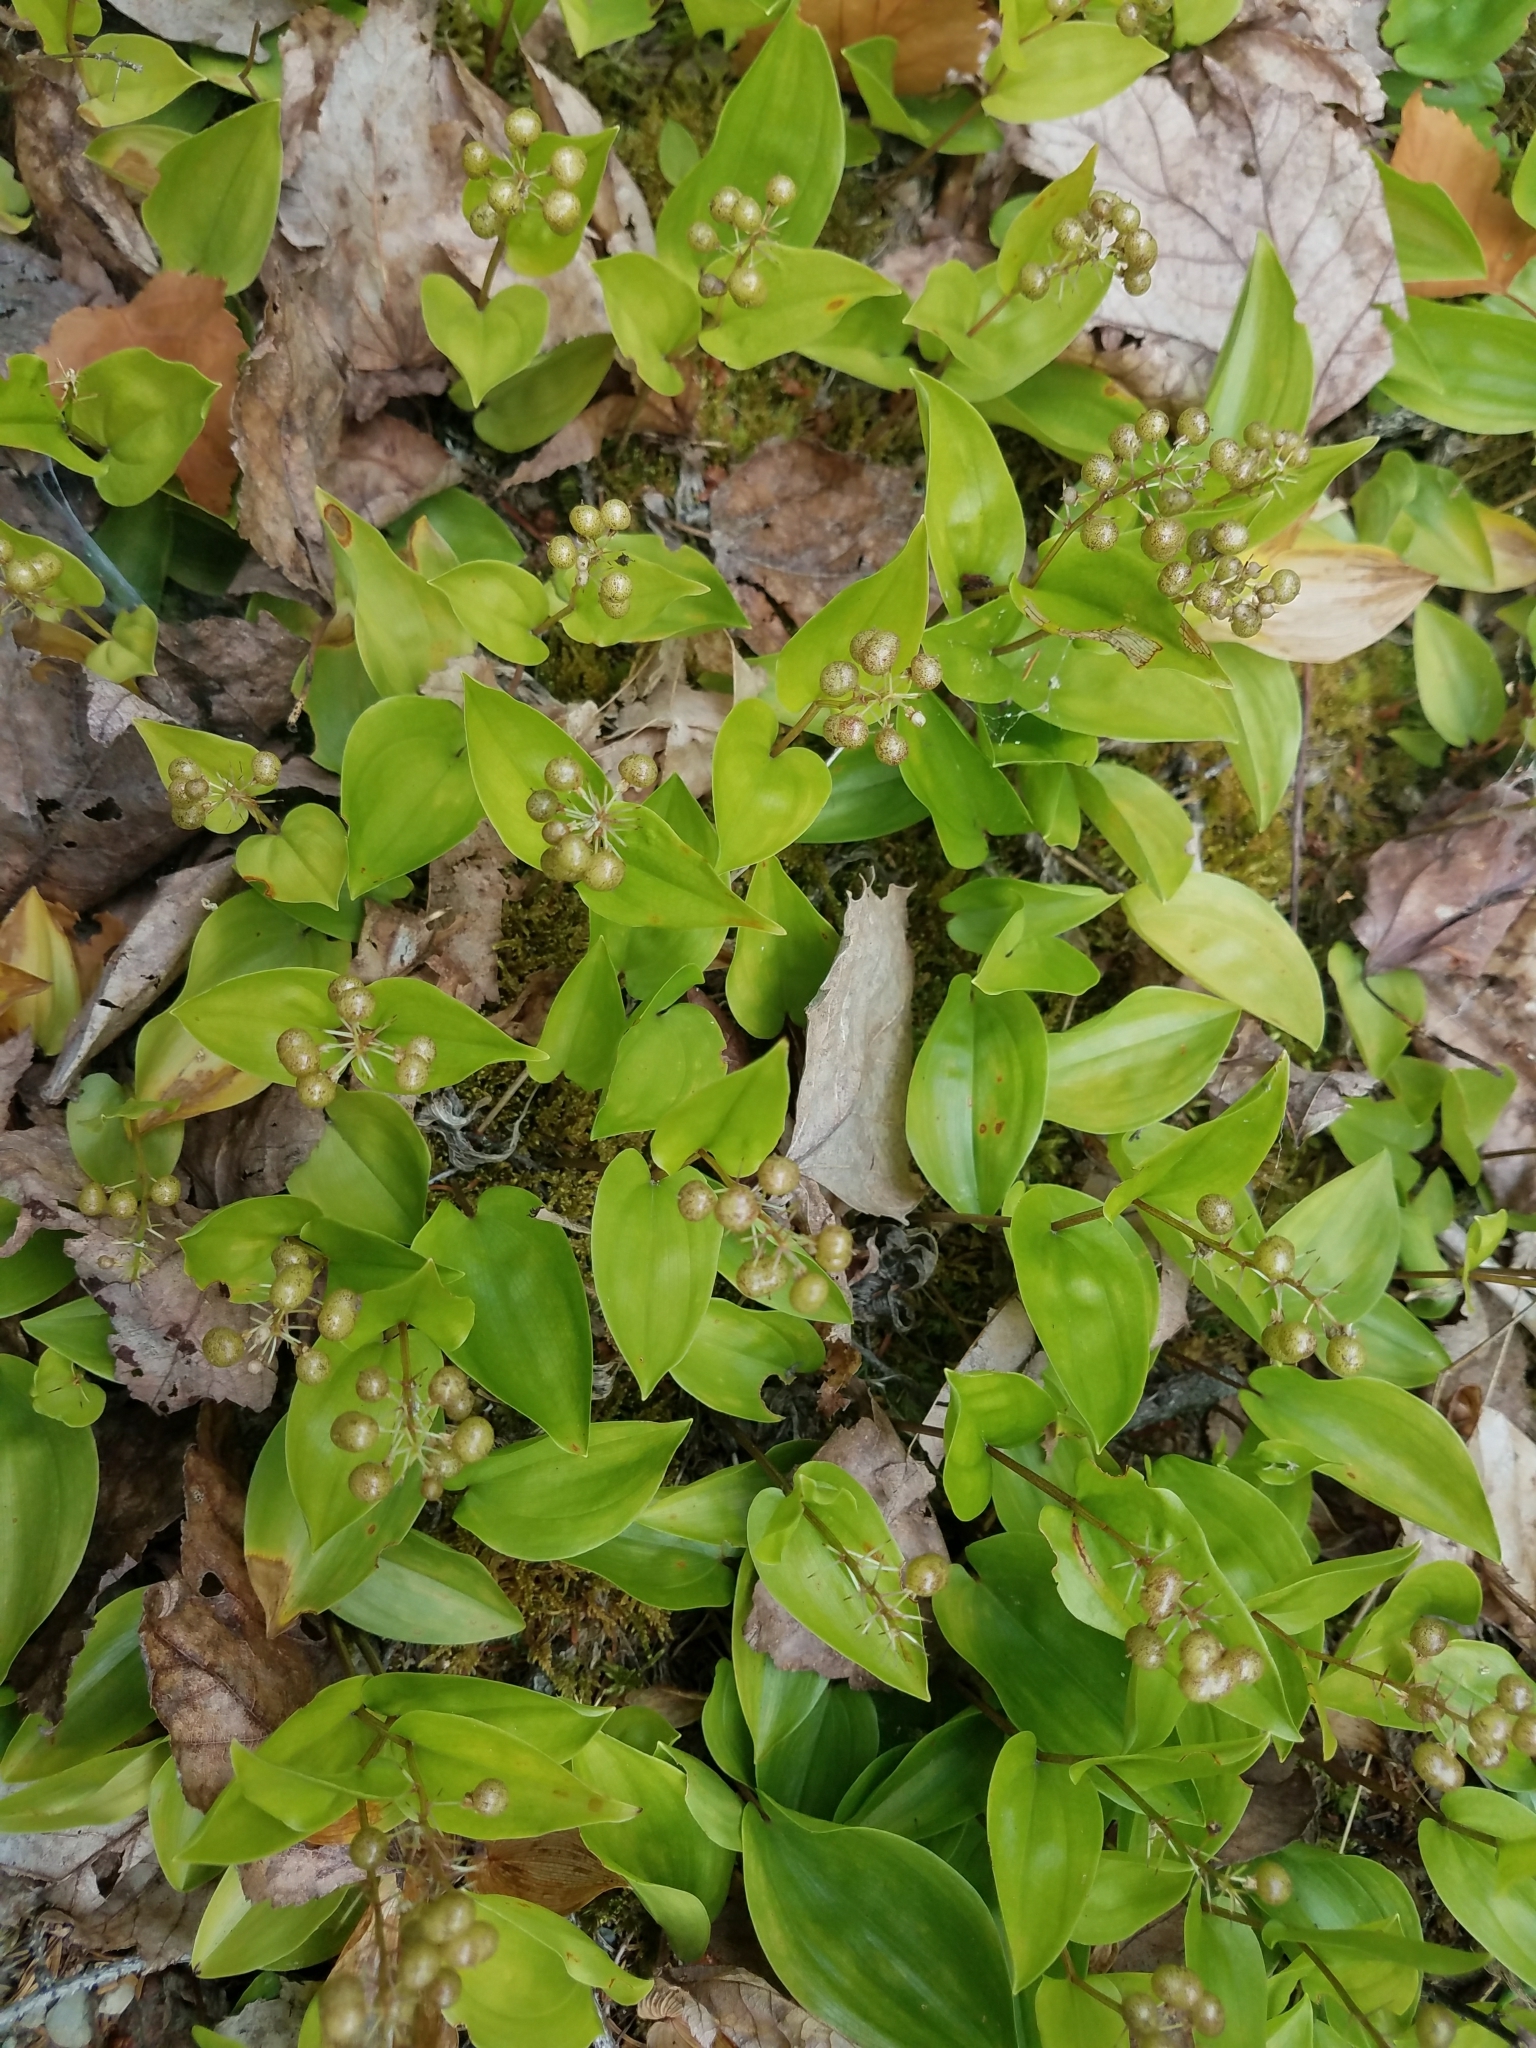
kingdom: Plantae
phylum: Tracheophyta
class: Liliopsida
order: Asparagales
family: Asparagaceae
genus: Maianthemum
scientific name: Maianthemum canadense
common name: False lily-of-the-valley
